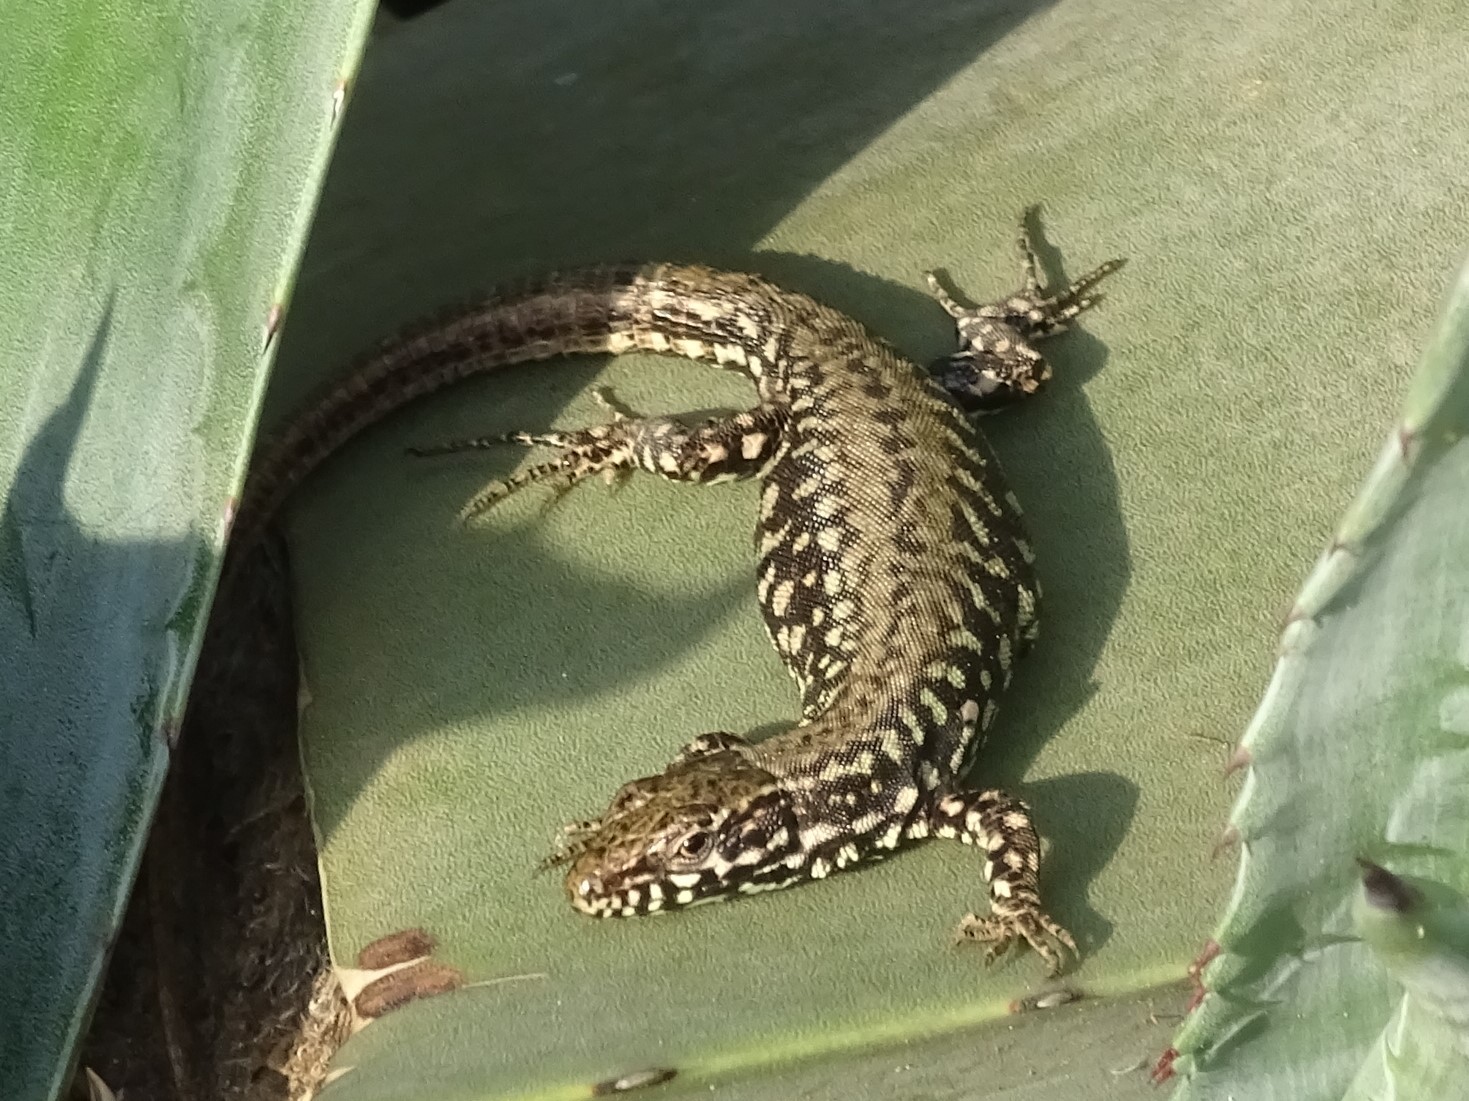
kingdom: Animalia
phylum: Chordata
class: Squamata
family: Lacertidae
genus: Podarcis
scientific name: Podarcis muralis
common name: Common wall lizard
